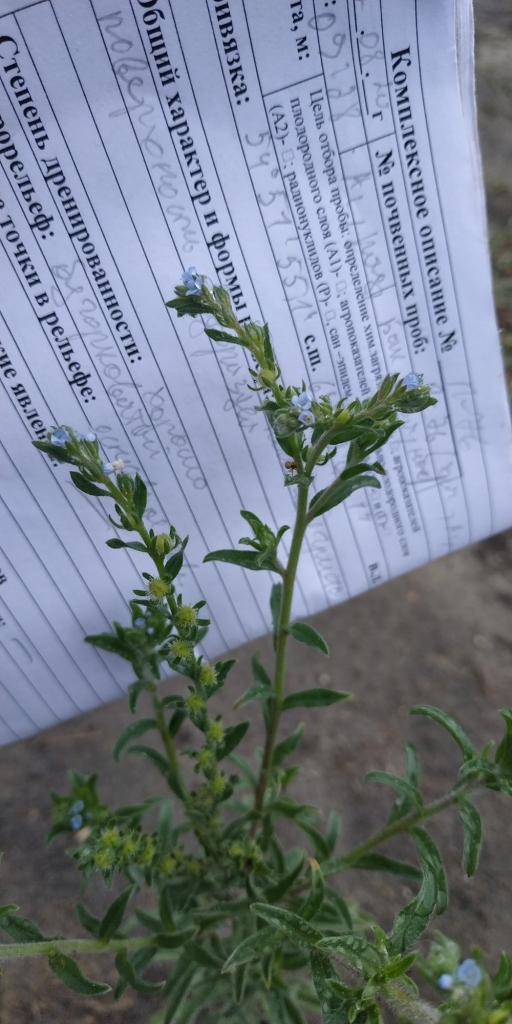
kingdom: Plantae
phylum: Tracheophyta
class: Magnoliopsida
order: Boraginales
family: Boraginaceae
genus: Lappula
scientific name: Lappula squarrosa
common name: European stickseed
